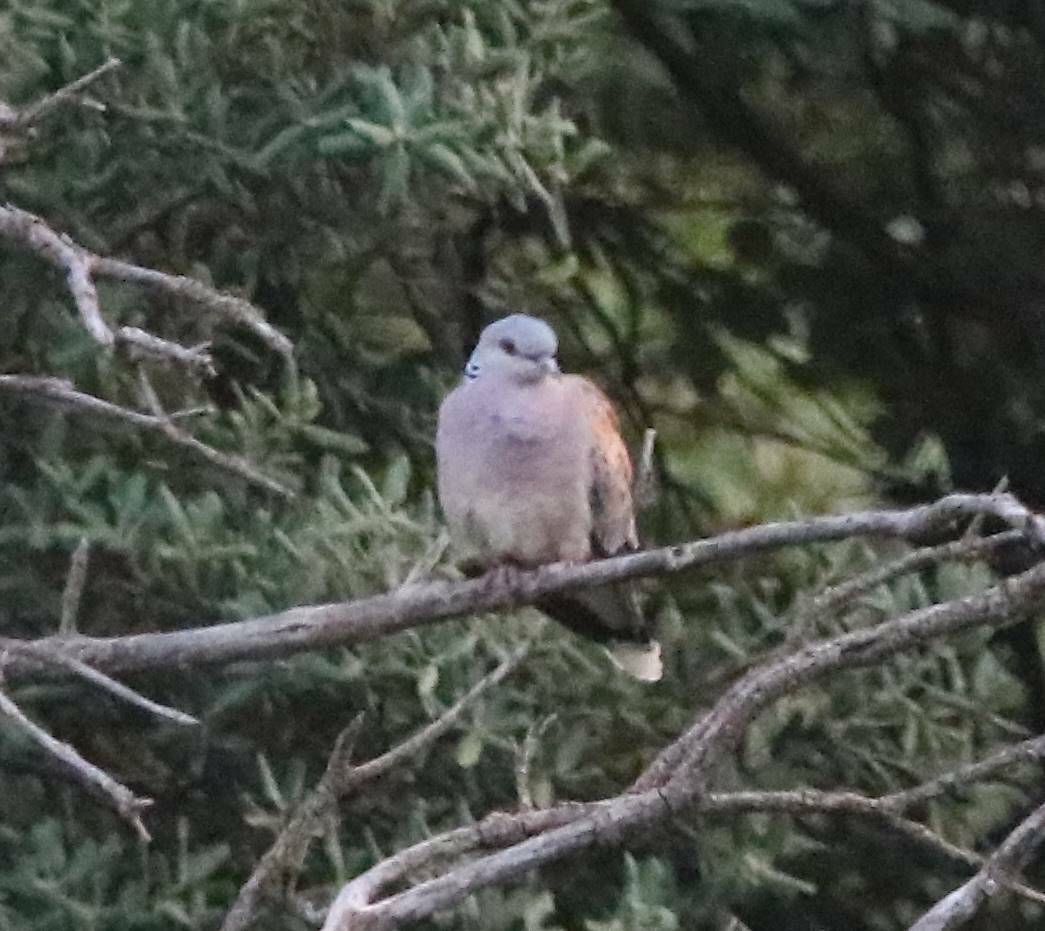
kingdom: Animalia
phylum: Chordata
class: Aves
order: Columbiformes
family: Columbidae
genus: Streptopelia
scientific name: Streptopelia turtur
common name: European turtle dove
